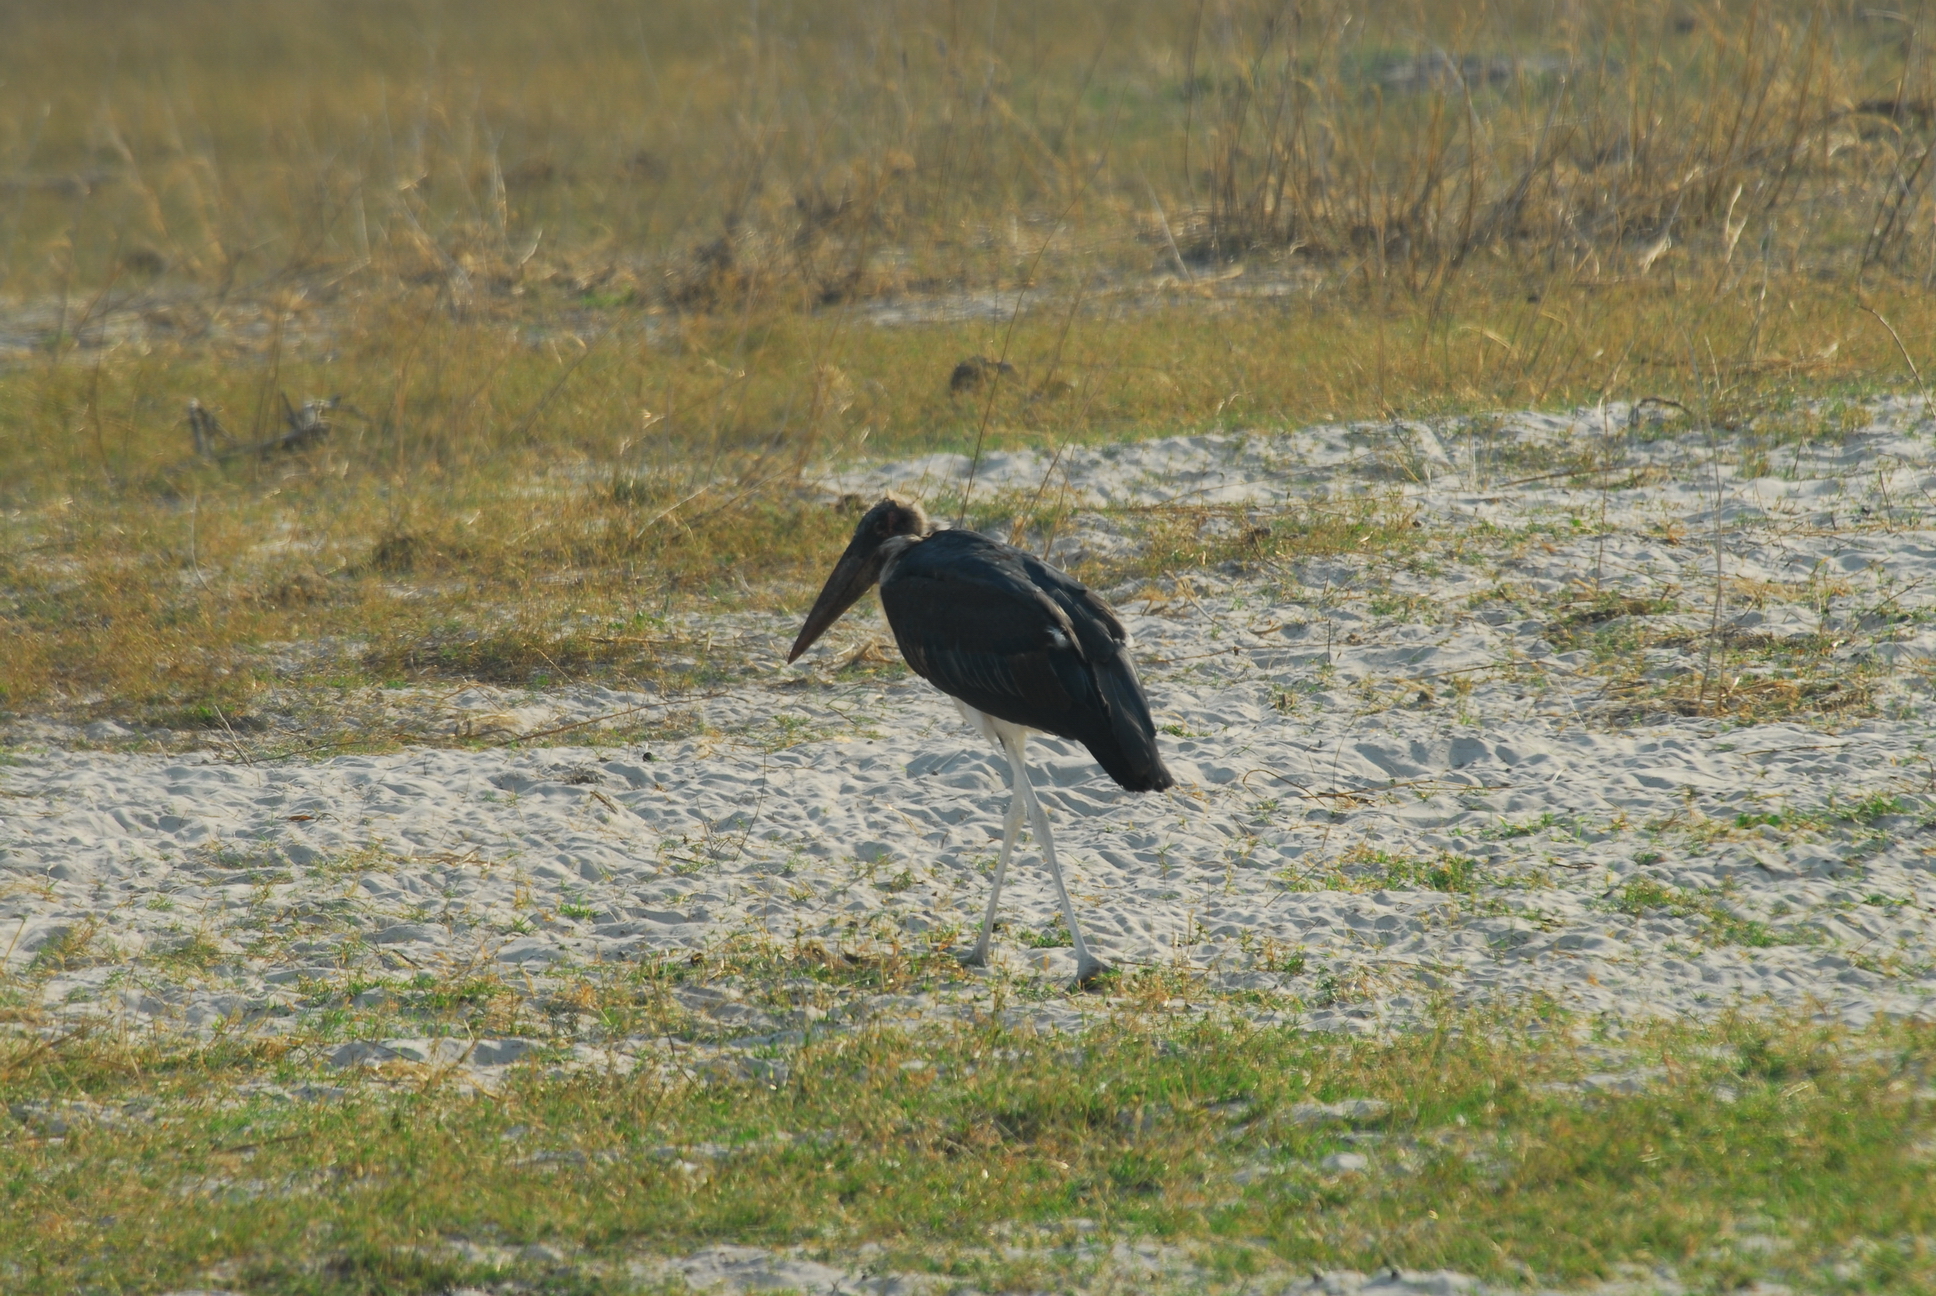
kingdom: Animalia
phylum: Chordata
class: Aves
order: Ciconiiformes
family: Ciconiidae
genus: Leptoptilos
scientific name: Leptoptilos crumenifer
